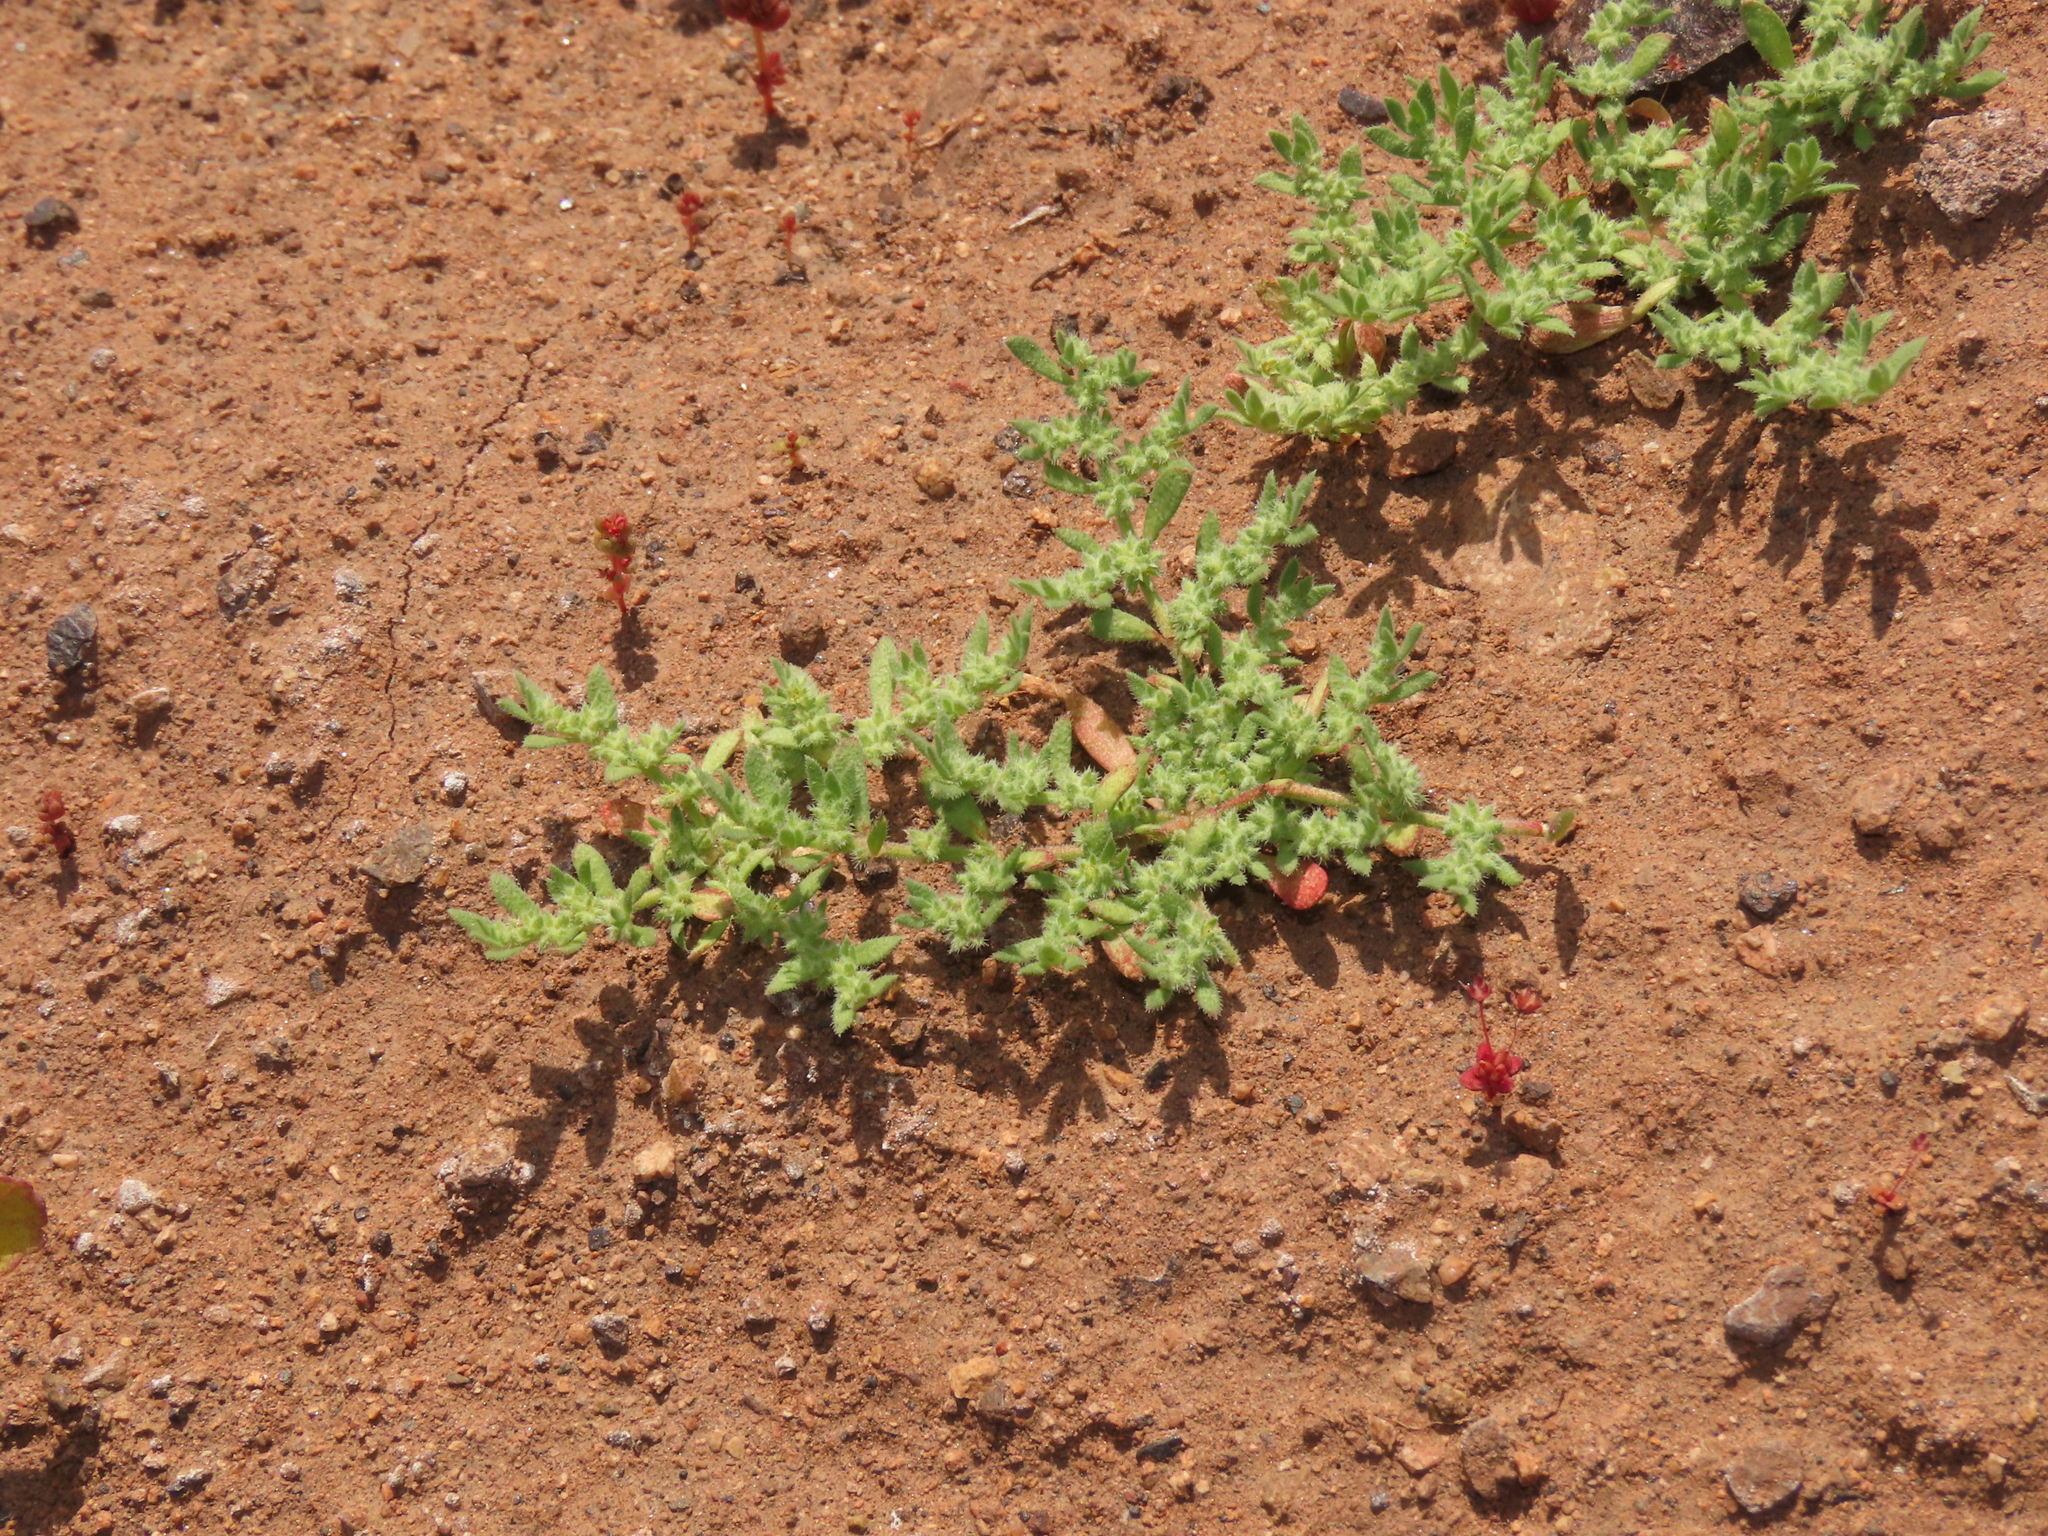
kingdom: Plantae
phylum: Tracheophyta
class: Magnoliopsida
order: Caryophyllales
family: Caryophyllaceae
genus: Herniaria
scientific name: Herniaria cinerea
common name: Hairy rupturewort
